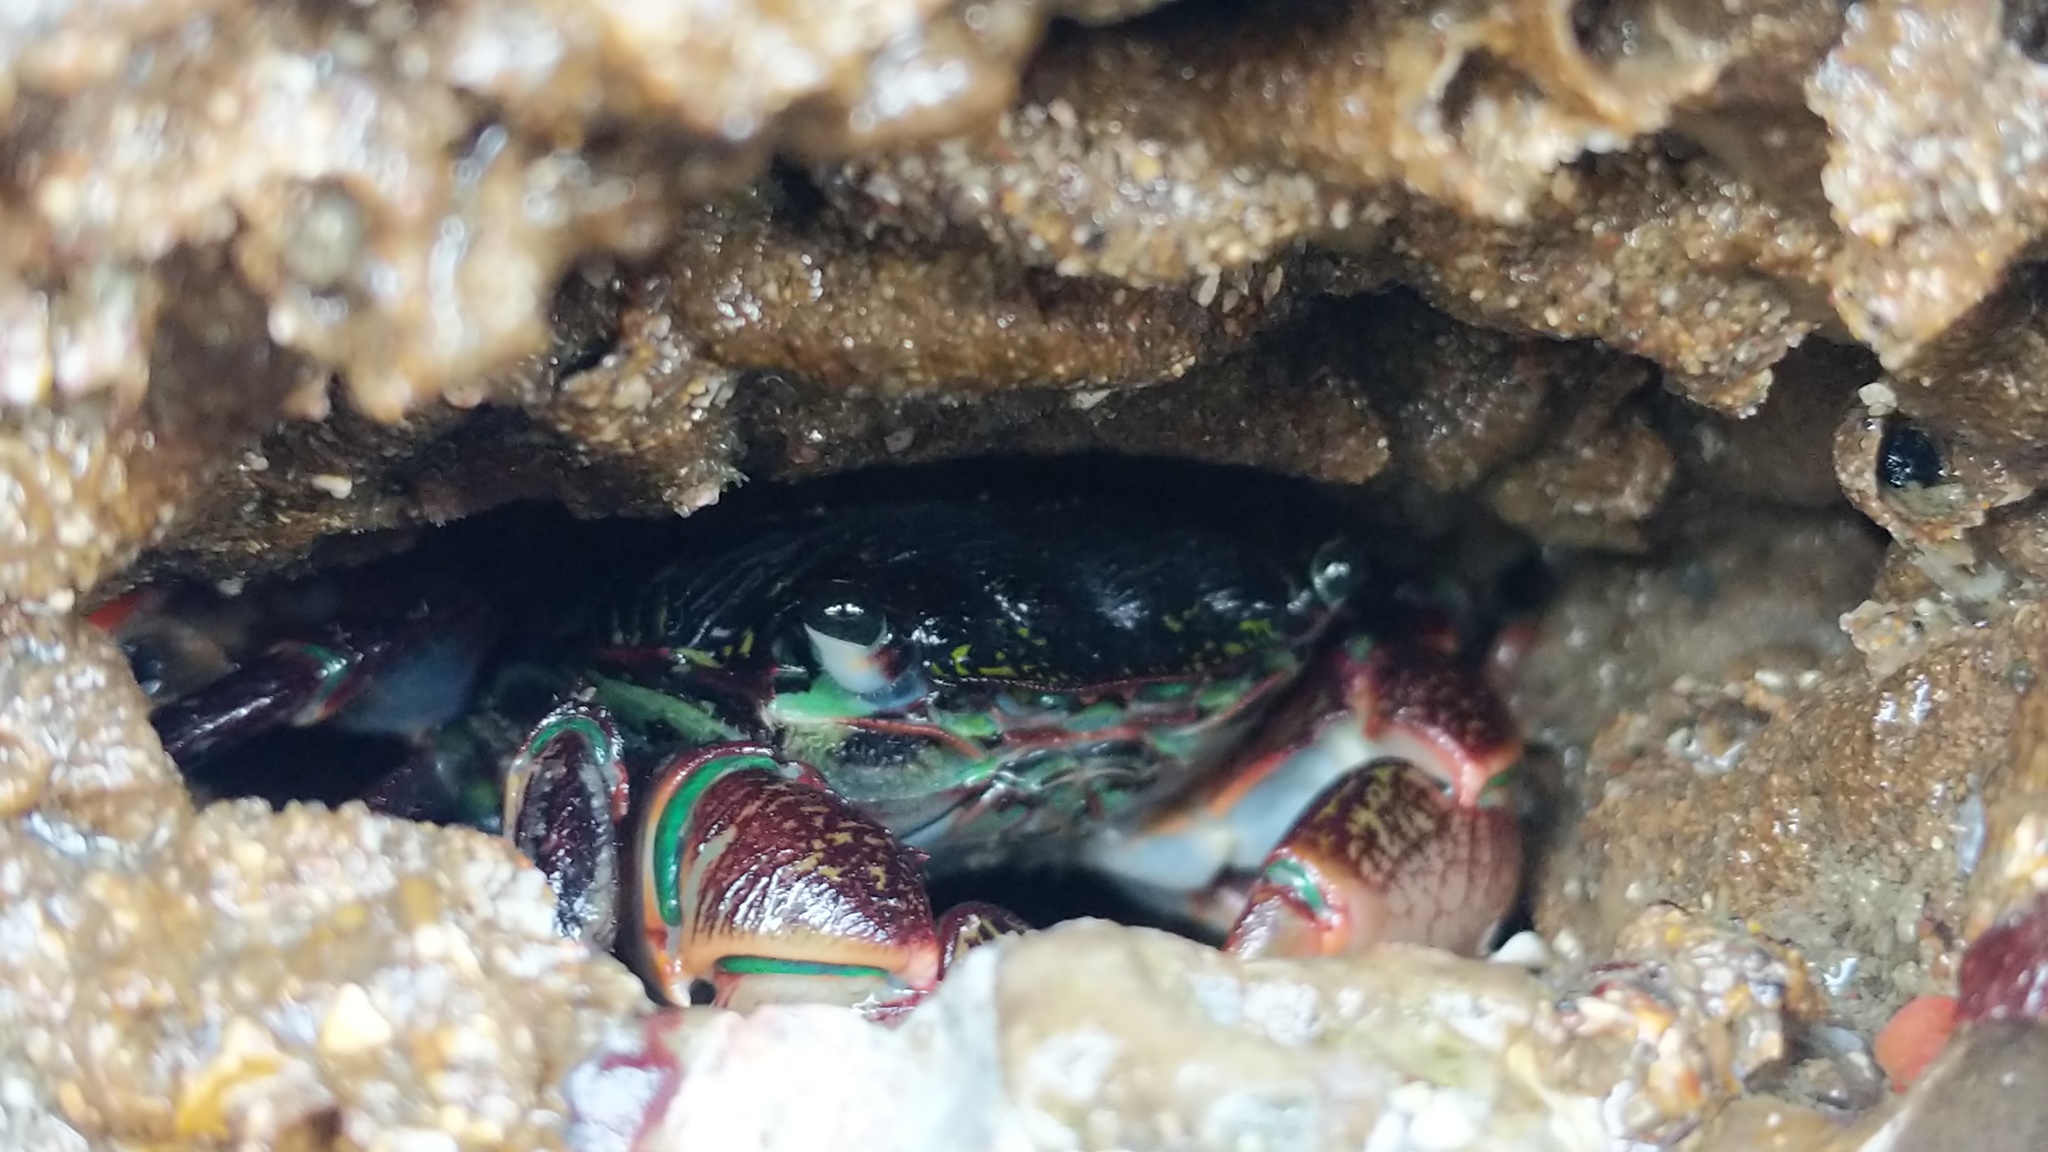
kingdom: Animalia
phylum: Arthropoda
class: Malacostraca
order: Decapoda
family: Grapsidae
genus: Pachygrapsus
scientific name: Pachygrapsus crassipes
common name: Striped shore crab
